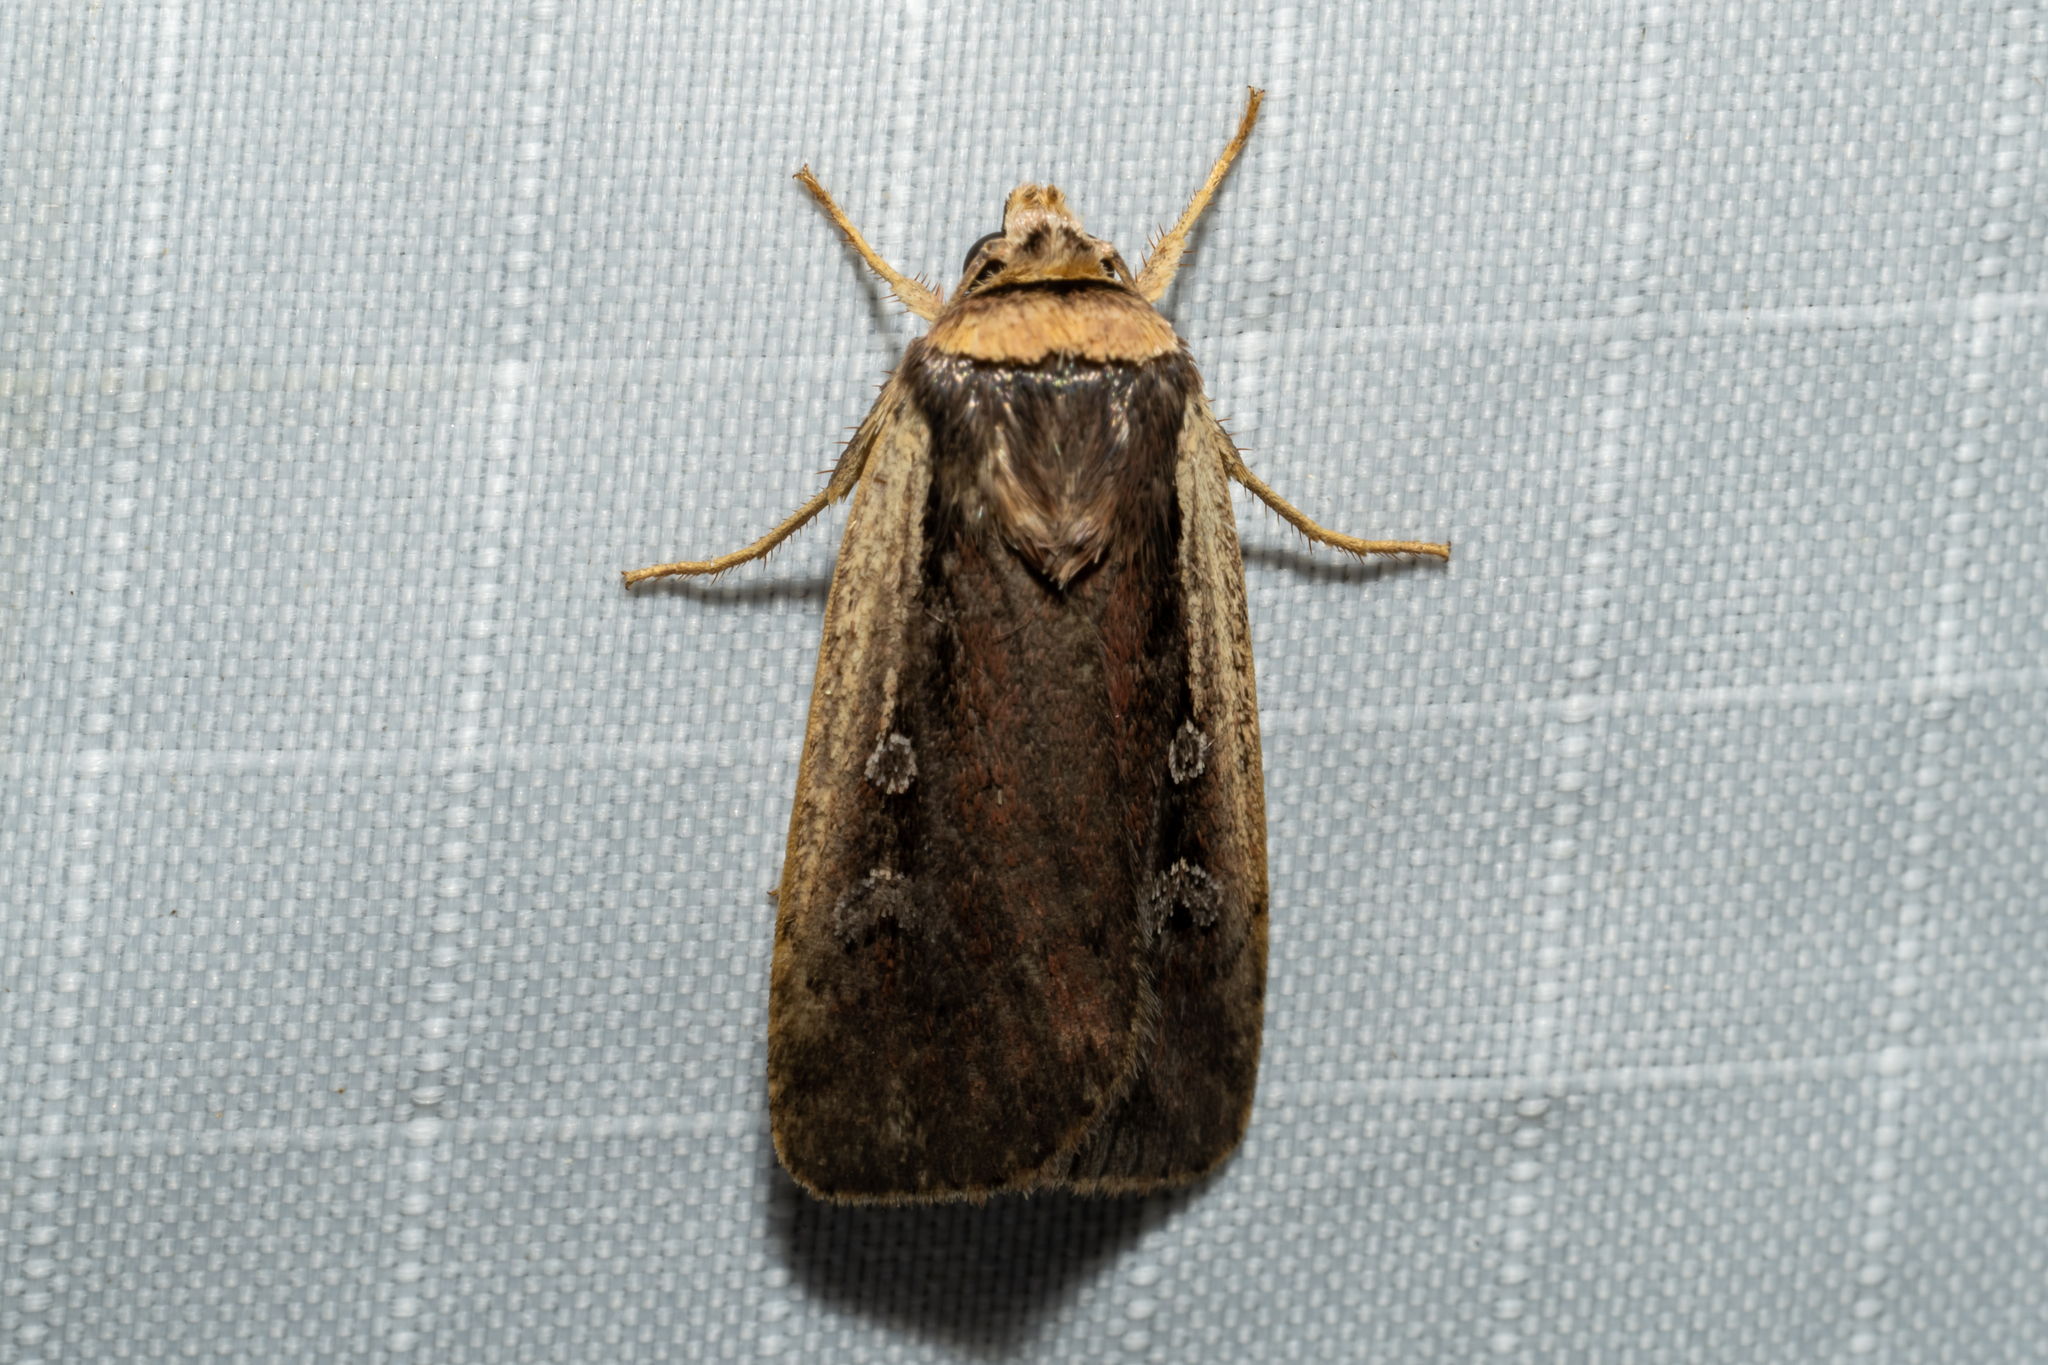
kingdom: Animalia
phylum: Arthropoda
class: Insecta
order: Lepidoptera
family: Noctuidae
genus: Ochropleura
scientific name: Ochropleura implecta
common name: Flame-shouldered dart
